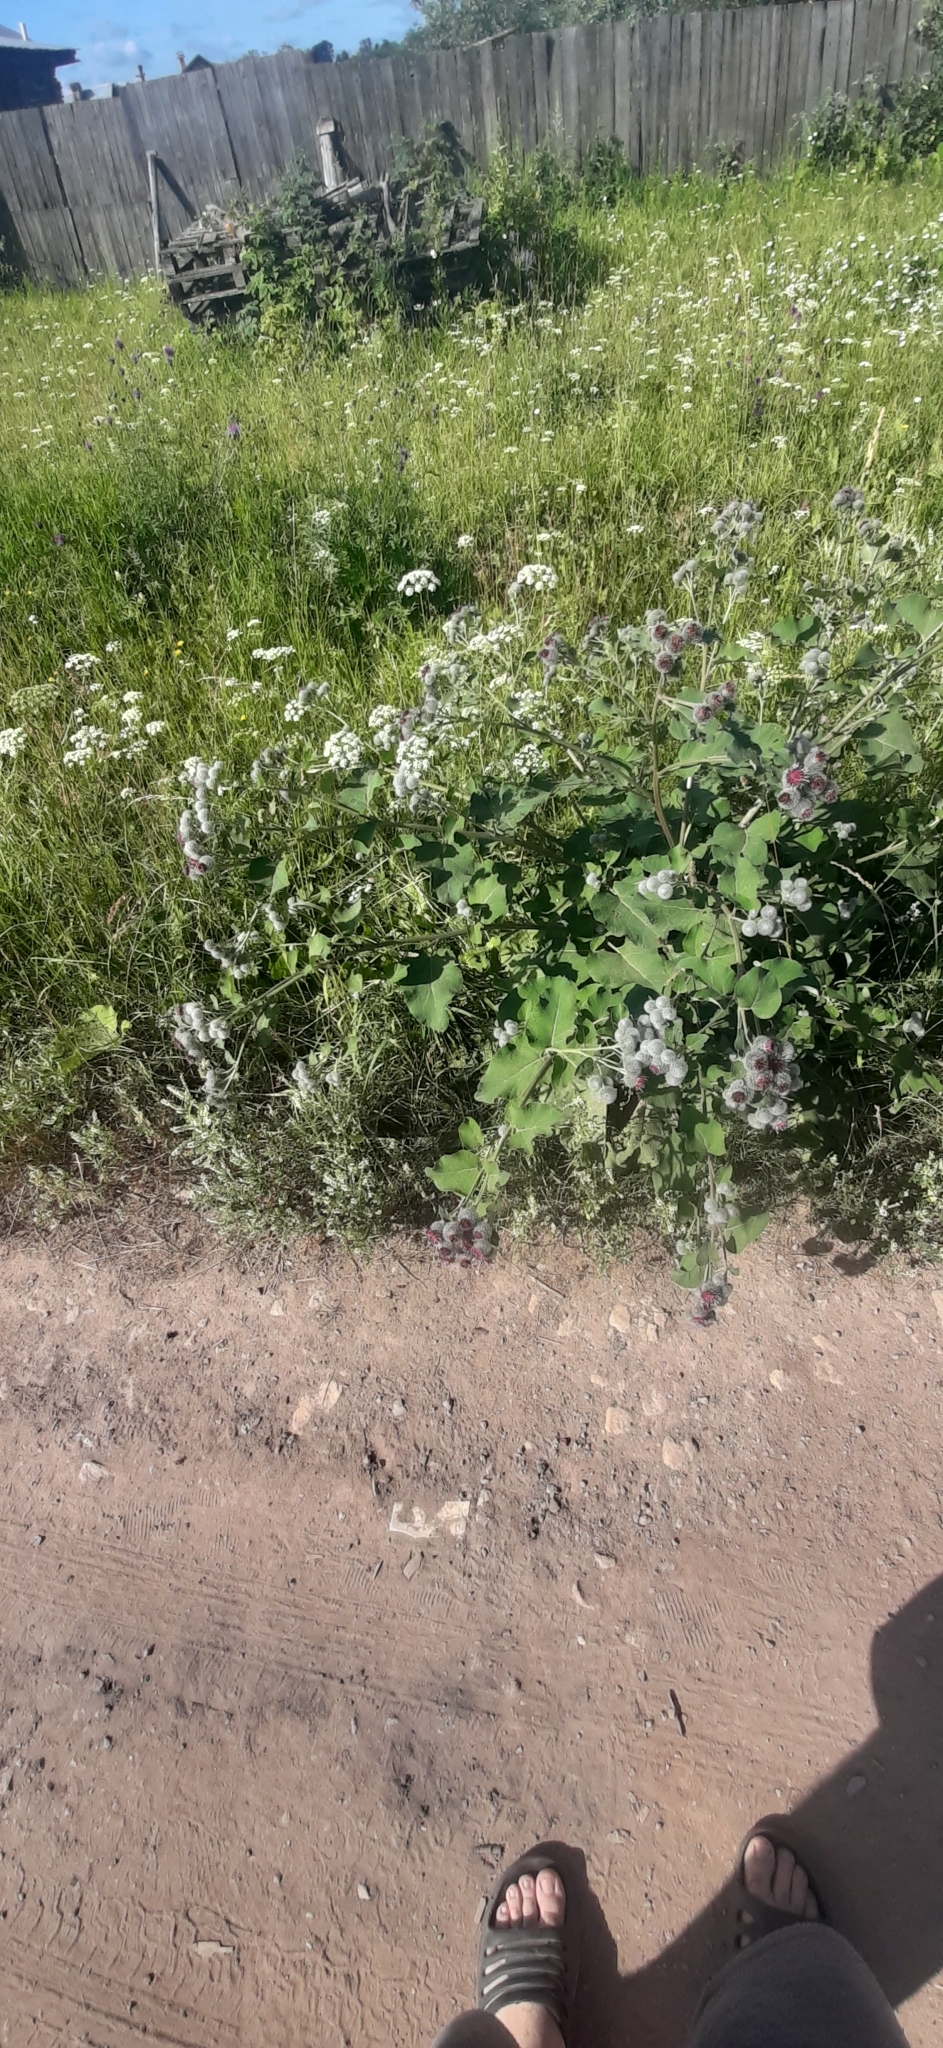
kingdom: Plantae
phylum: Tracheophyta
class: Magnoliopsida
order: Asterales
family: Asteraceae
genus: Arctium
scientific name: Arctium tomentosum
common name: Woolly burdock
